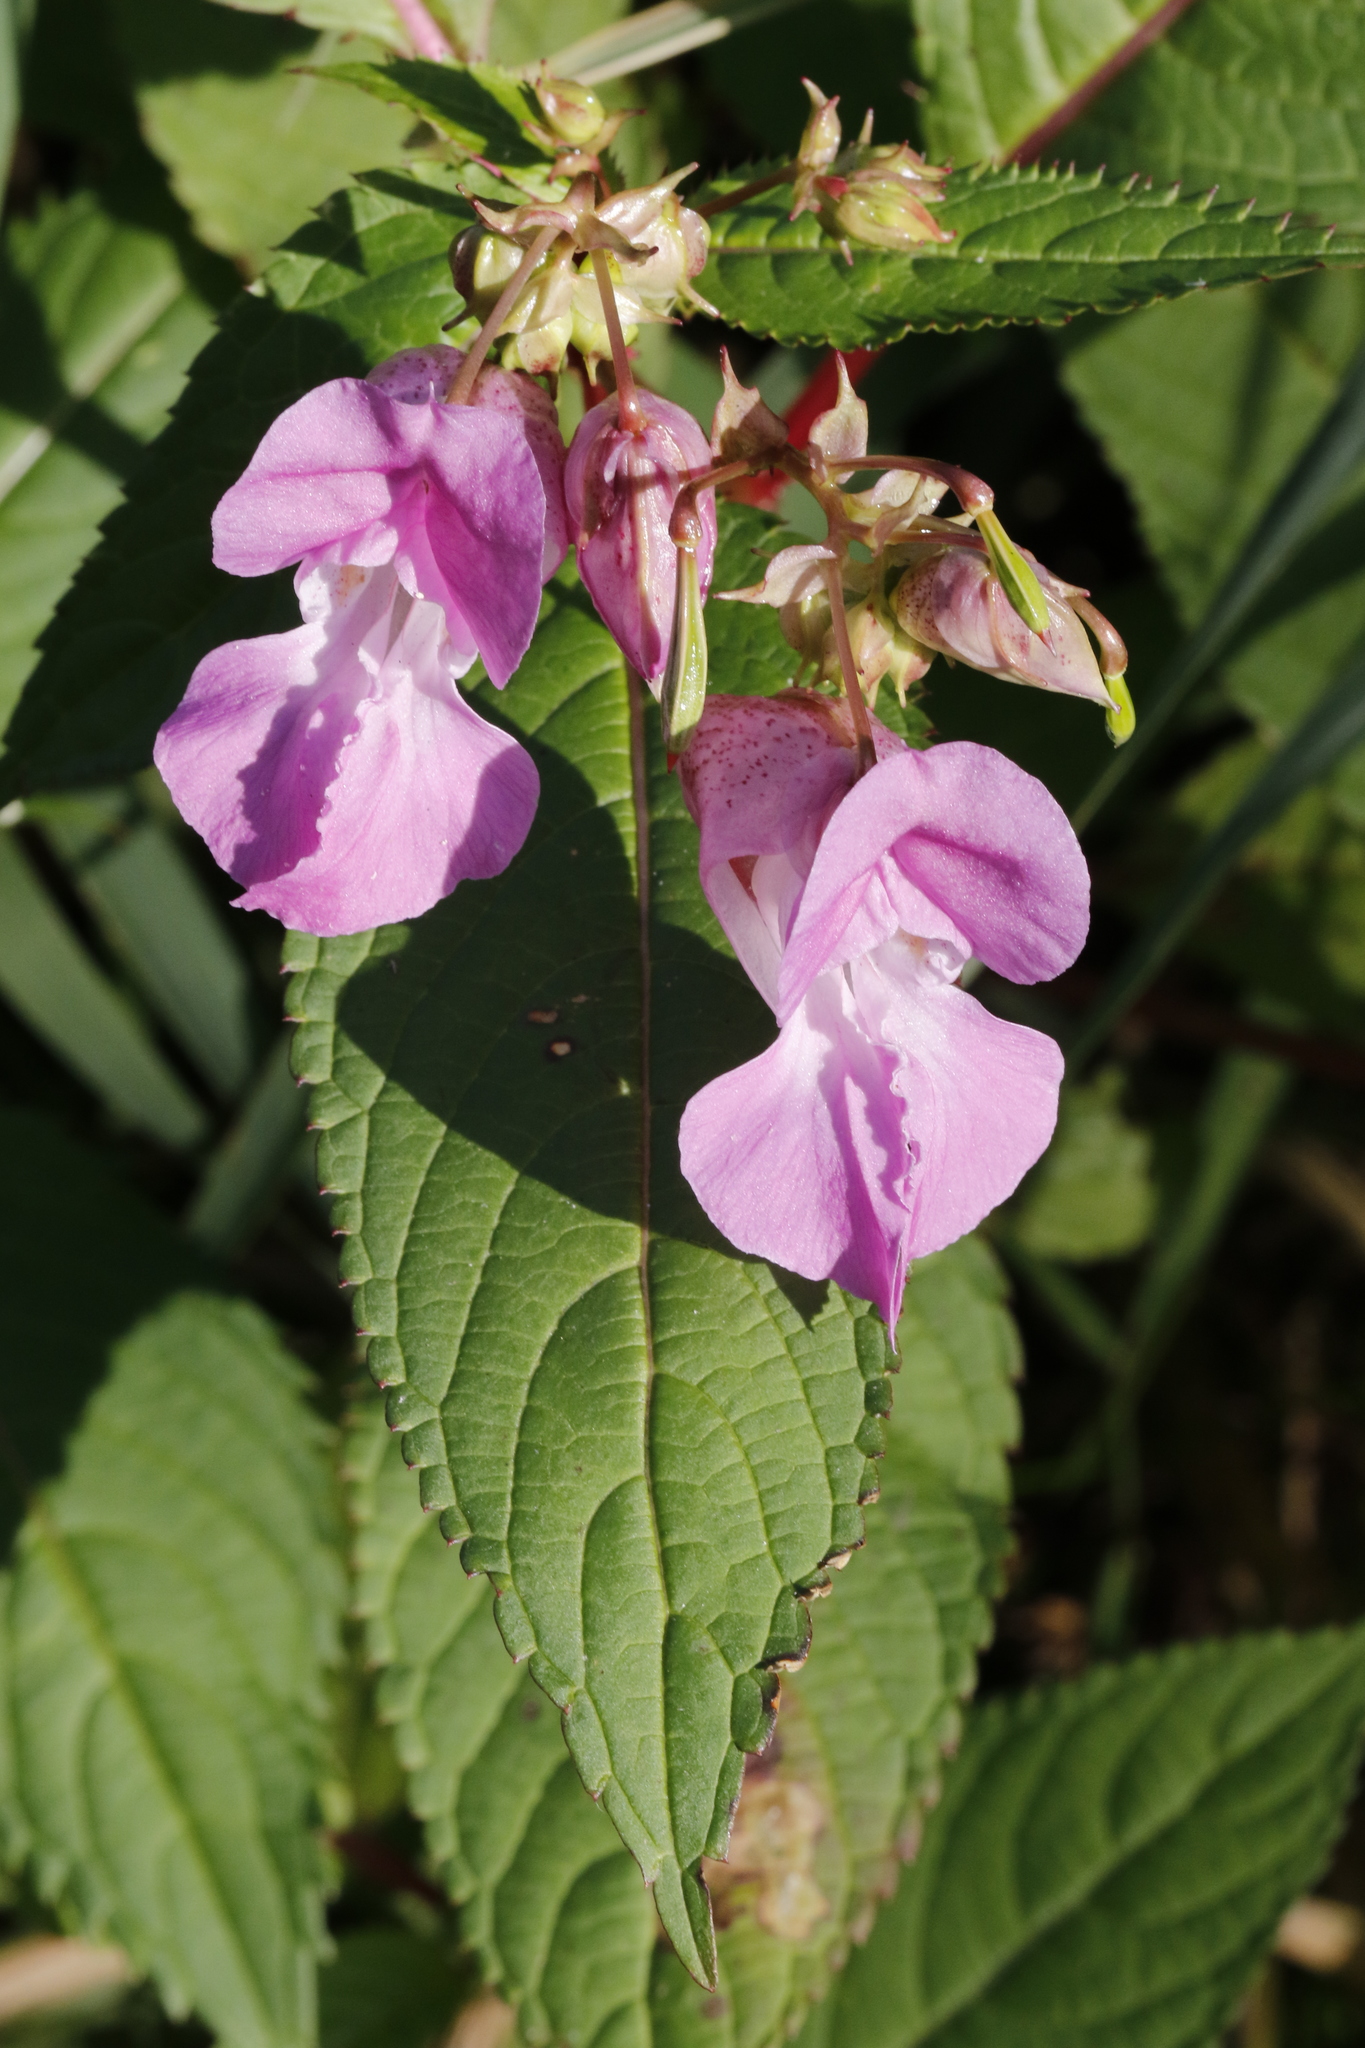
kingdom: Plantae
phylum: Tracheophyta
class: Magnoliopsida
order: Ericales
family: Balsaminaceae
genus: Impatiens
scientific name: Impatiens glandulifera
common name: Himalayan balsam
